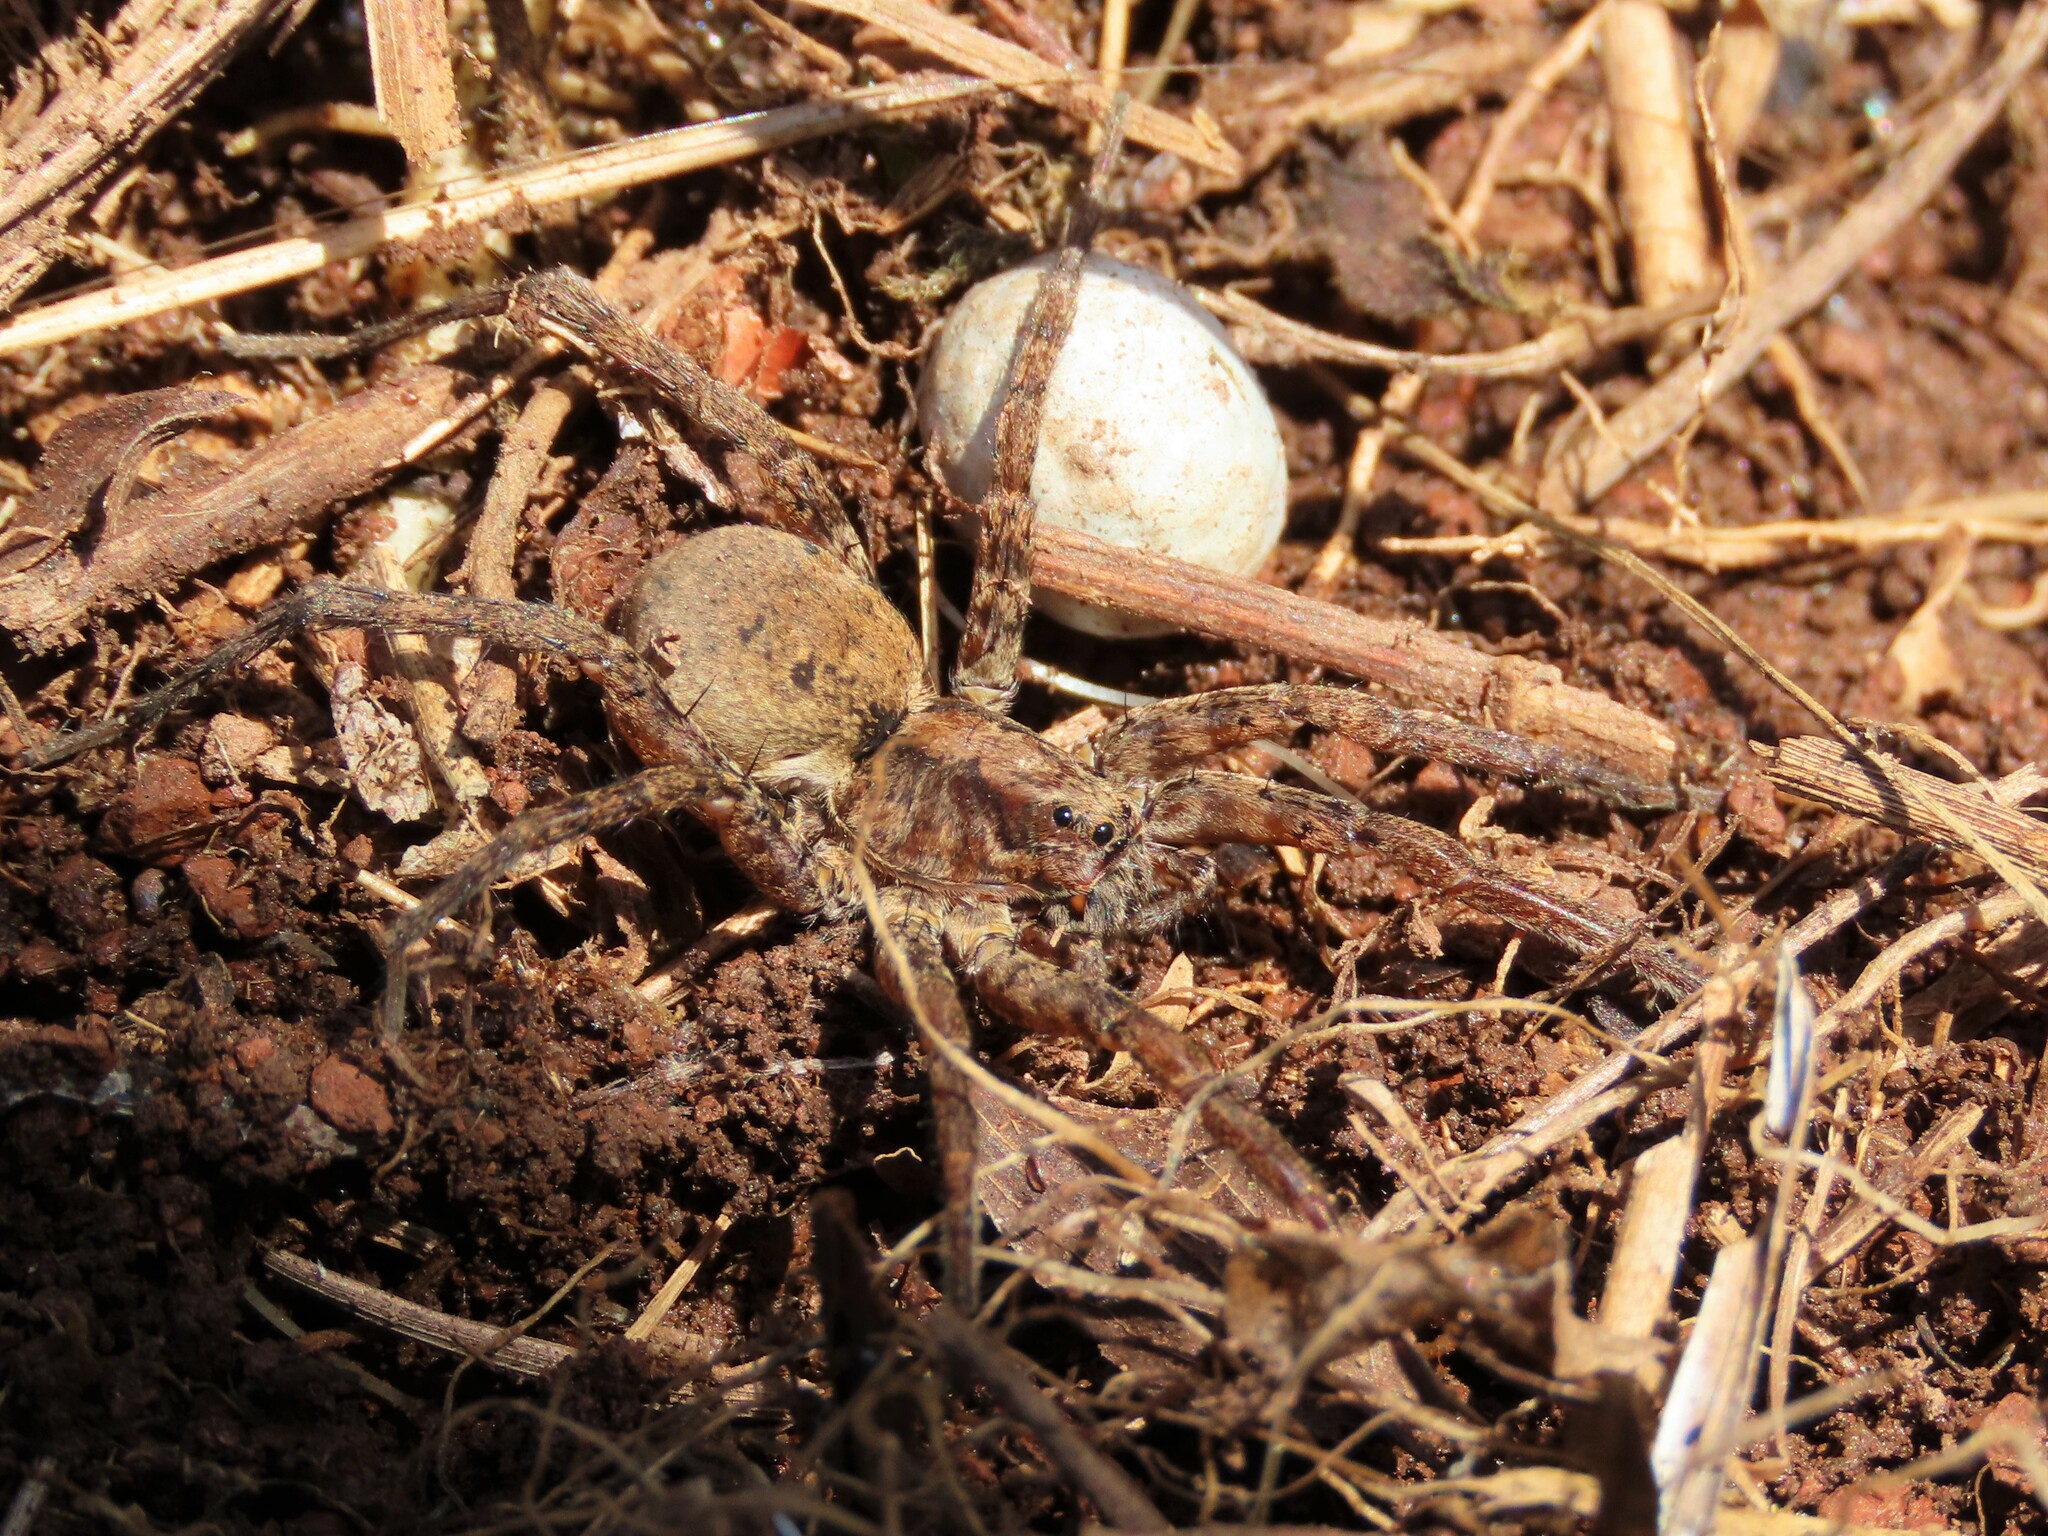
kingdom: Animalia
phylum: Arthropoda
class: Arachnida
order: Araneae
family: Lycosidae
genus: Gladicosa
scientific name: Gladicosa gulosa
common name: Drumming sword wolf spider
